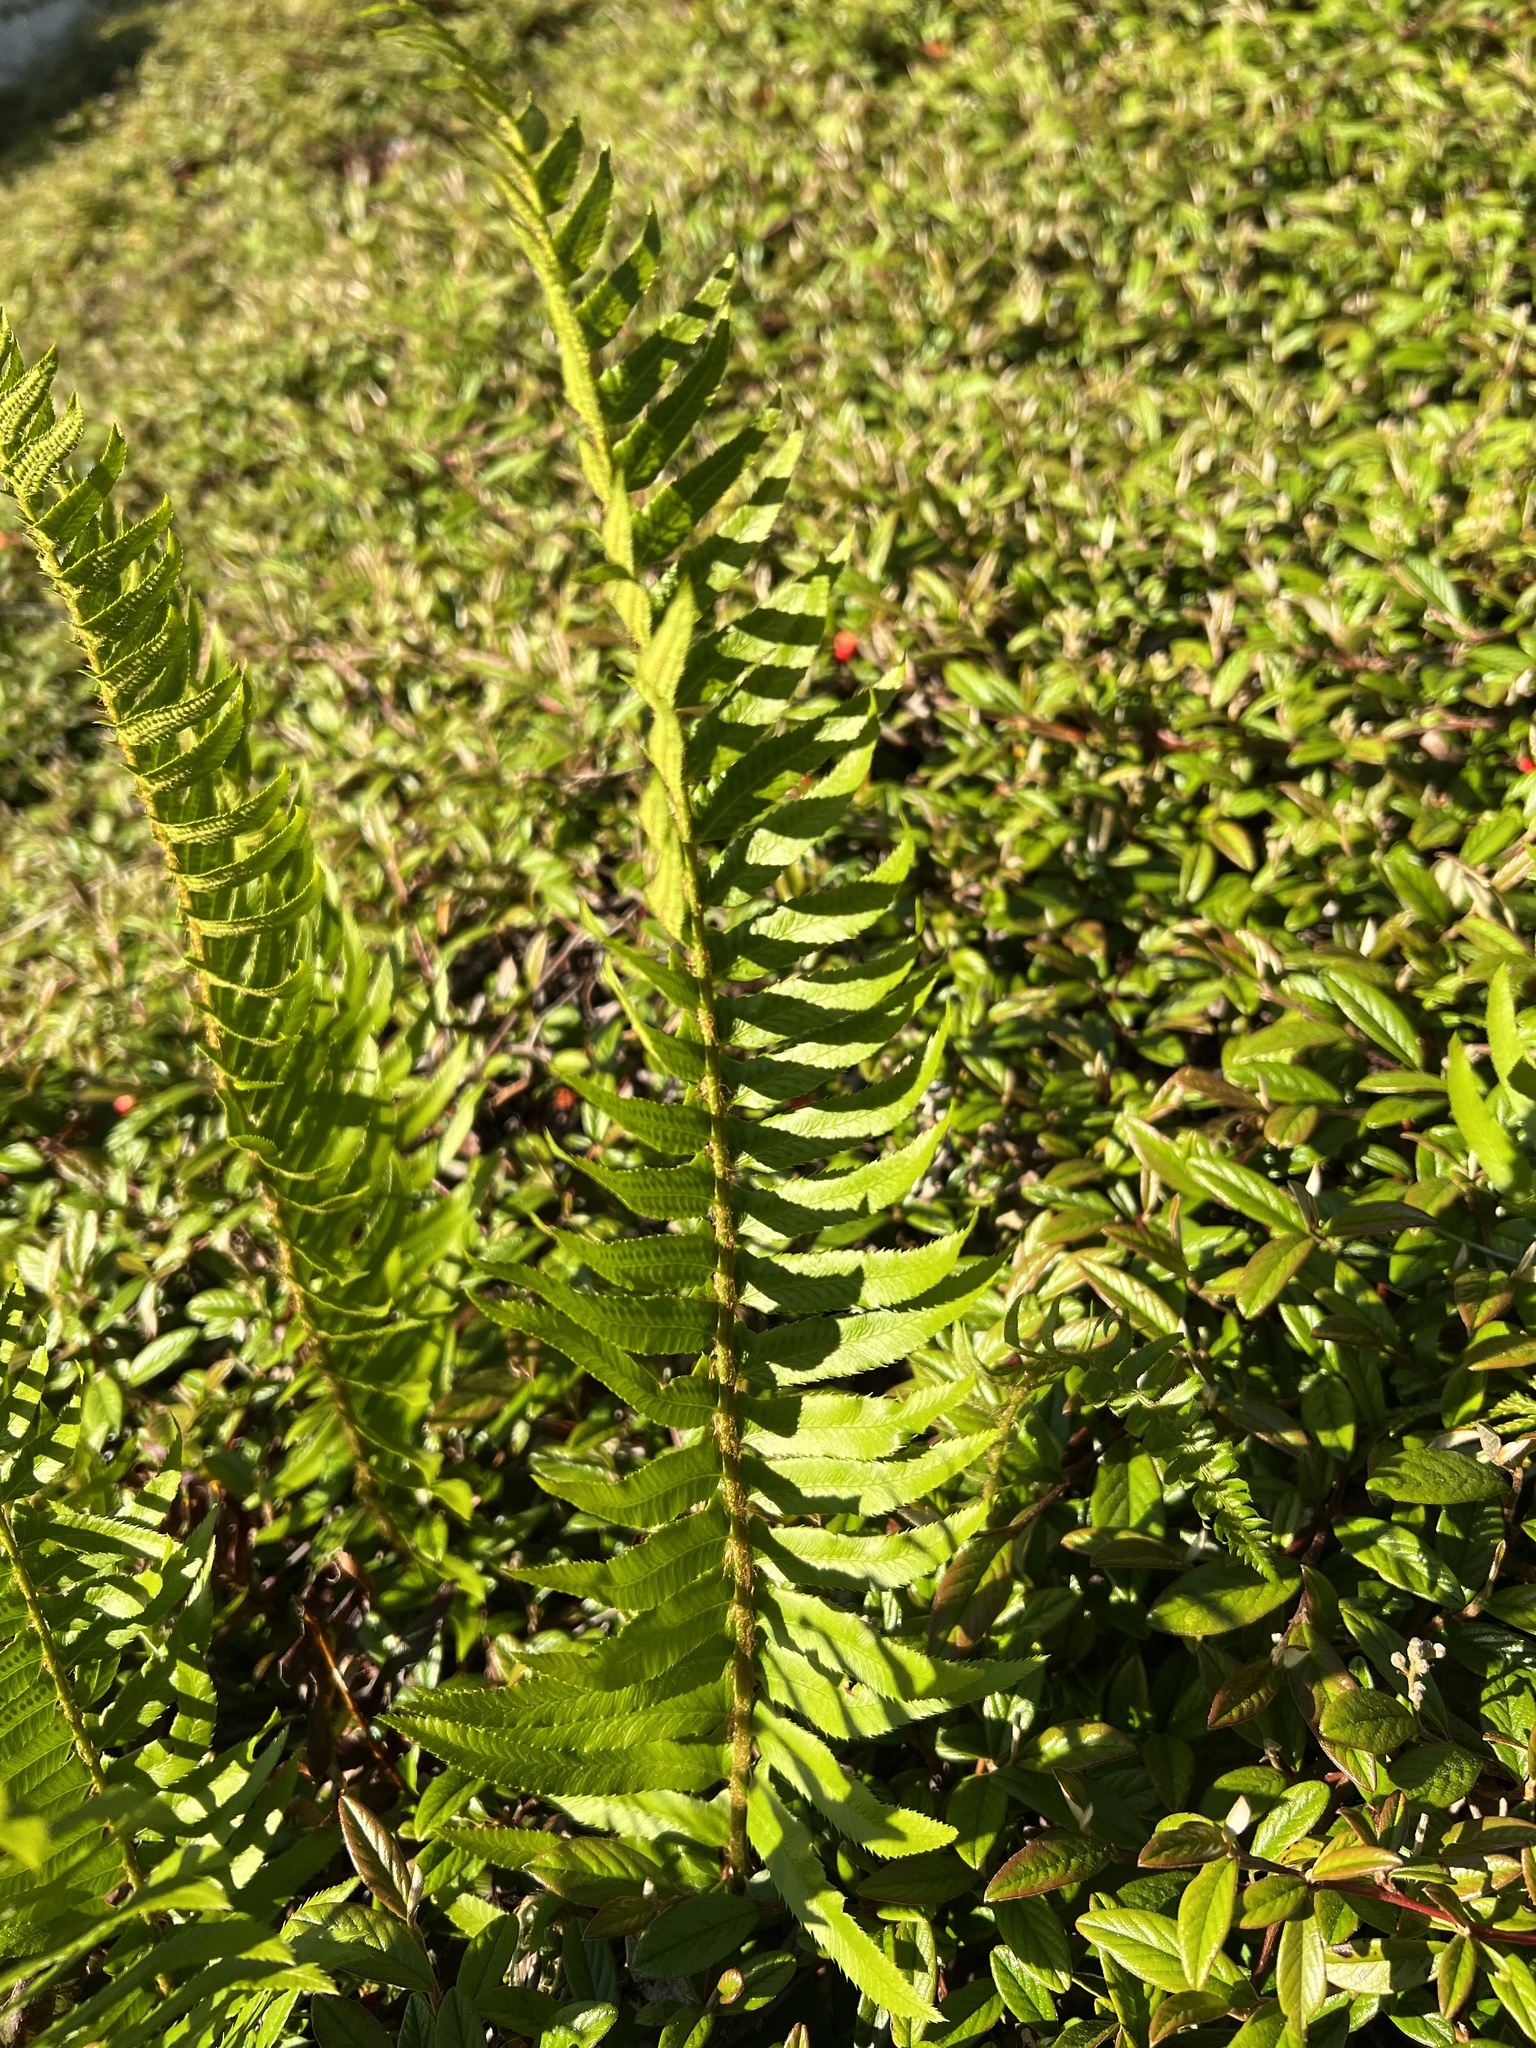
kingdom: Plantae
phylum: Tracheophyta
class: Polypodiopsida
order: Polypodiales
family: Dryopteridaceae
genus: Polystichum
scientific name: Polystichum munitum
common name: Western sword-fern
